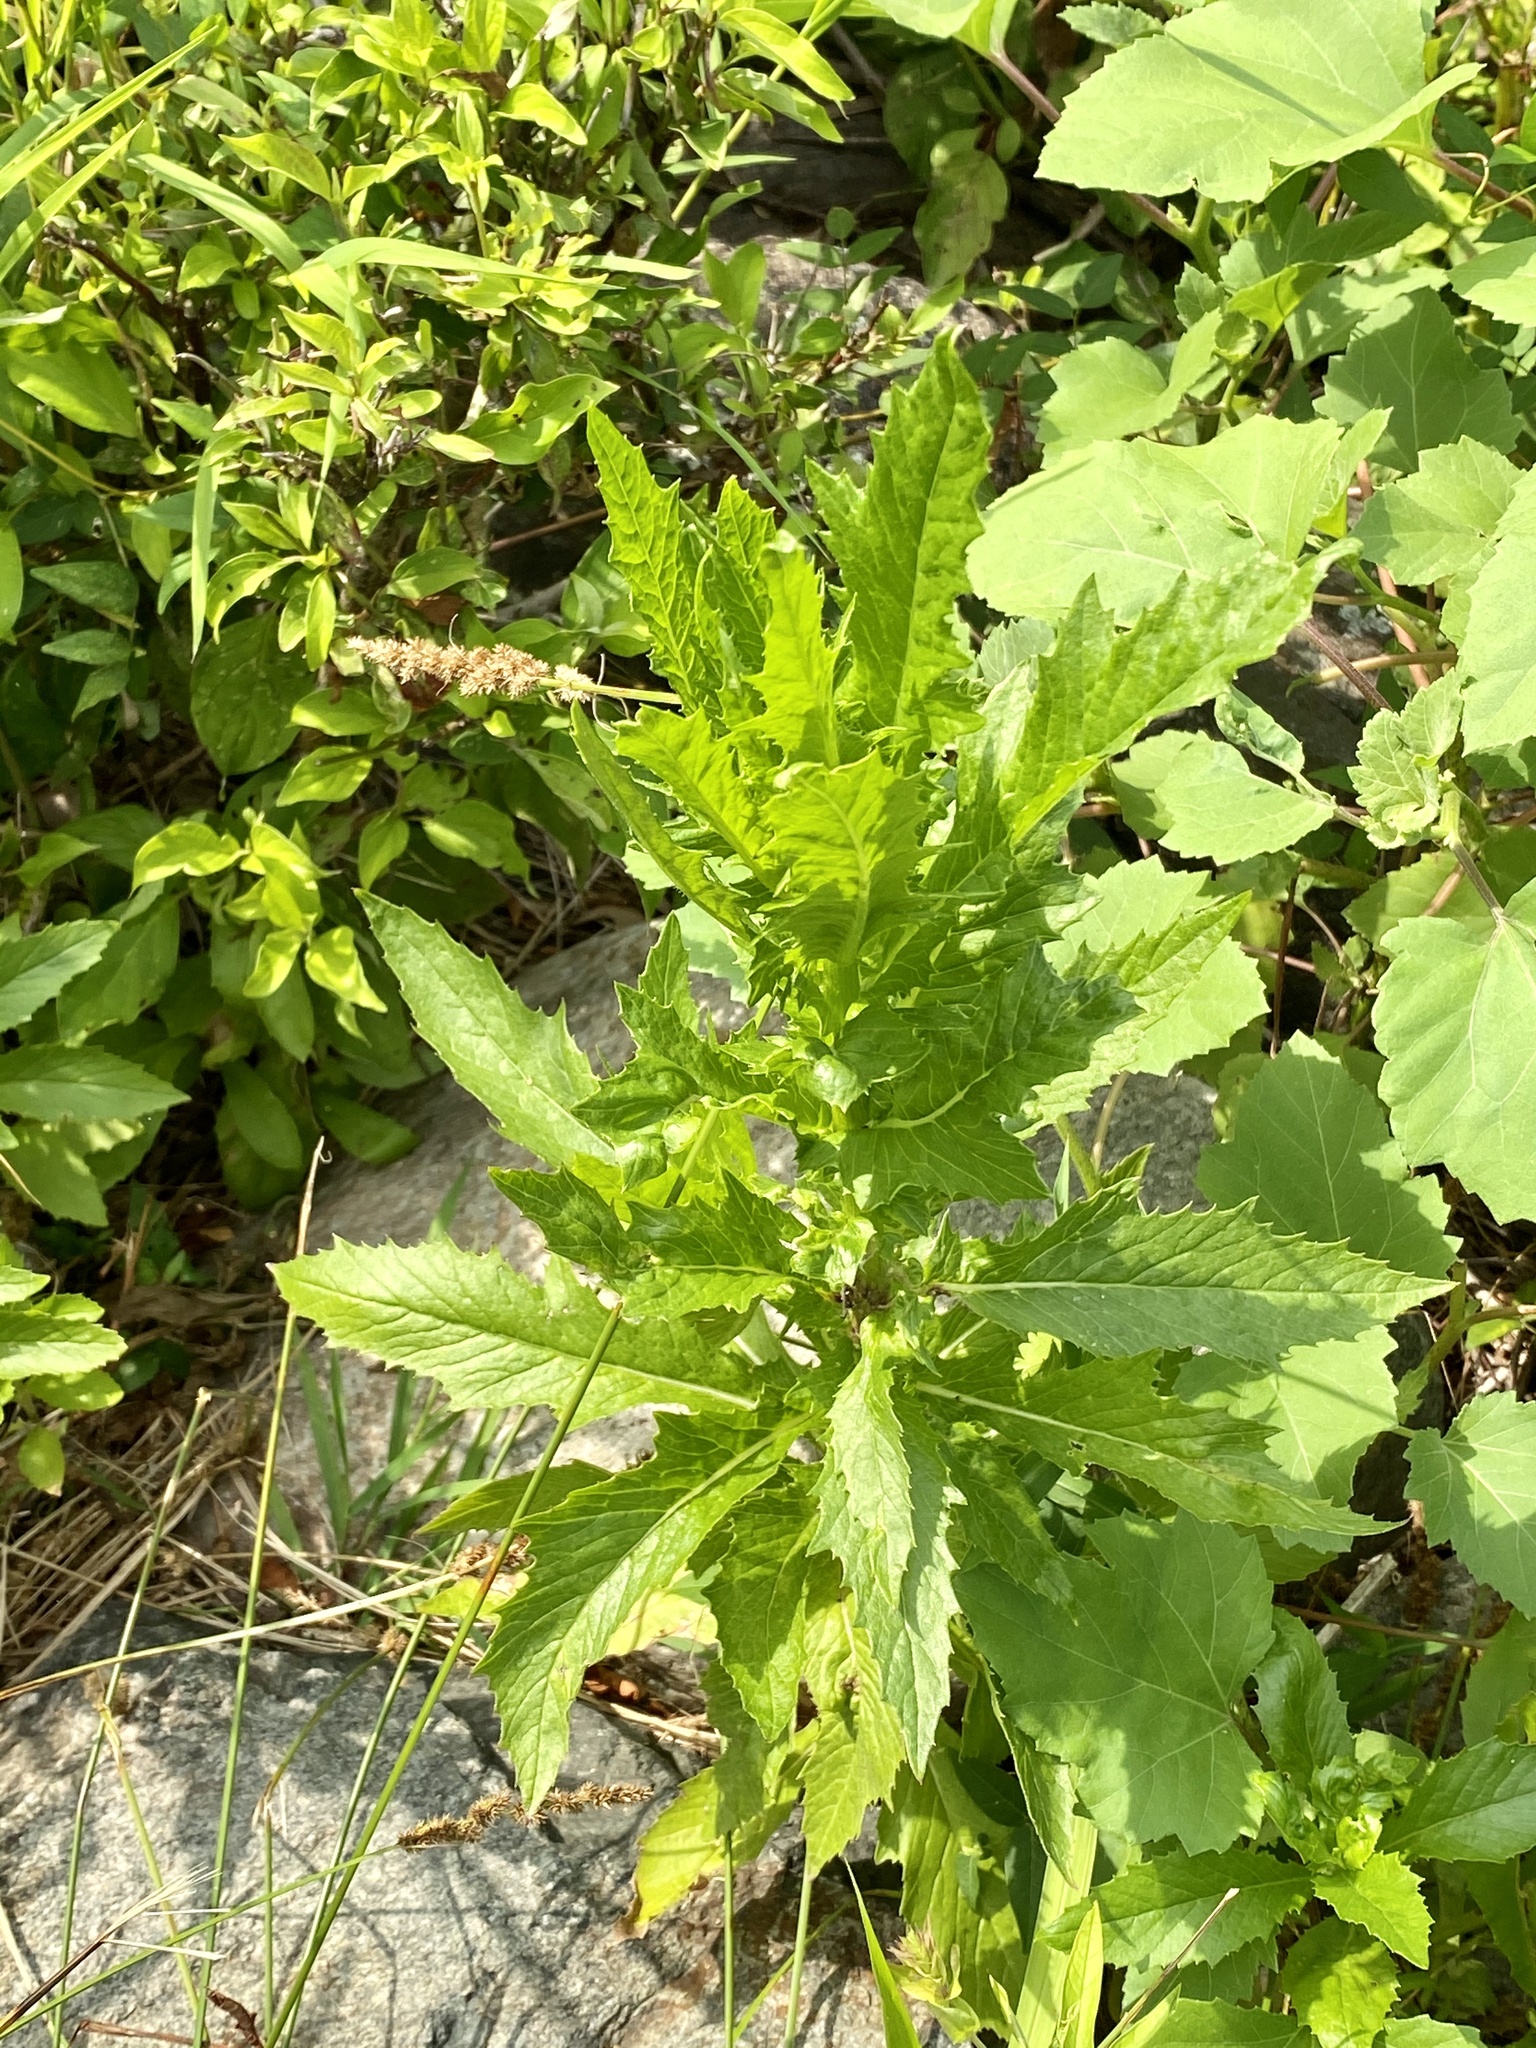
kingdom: Plantae
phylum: Tracheophyta
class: Magnoliopsida
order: Asterales
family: Asteraceae
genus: Erechtites
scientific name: Erechtites hieraciifolius
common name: American burnweed
